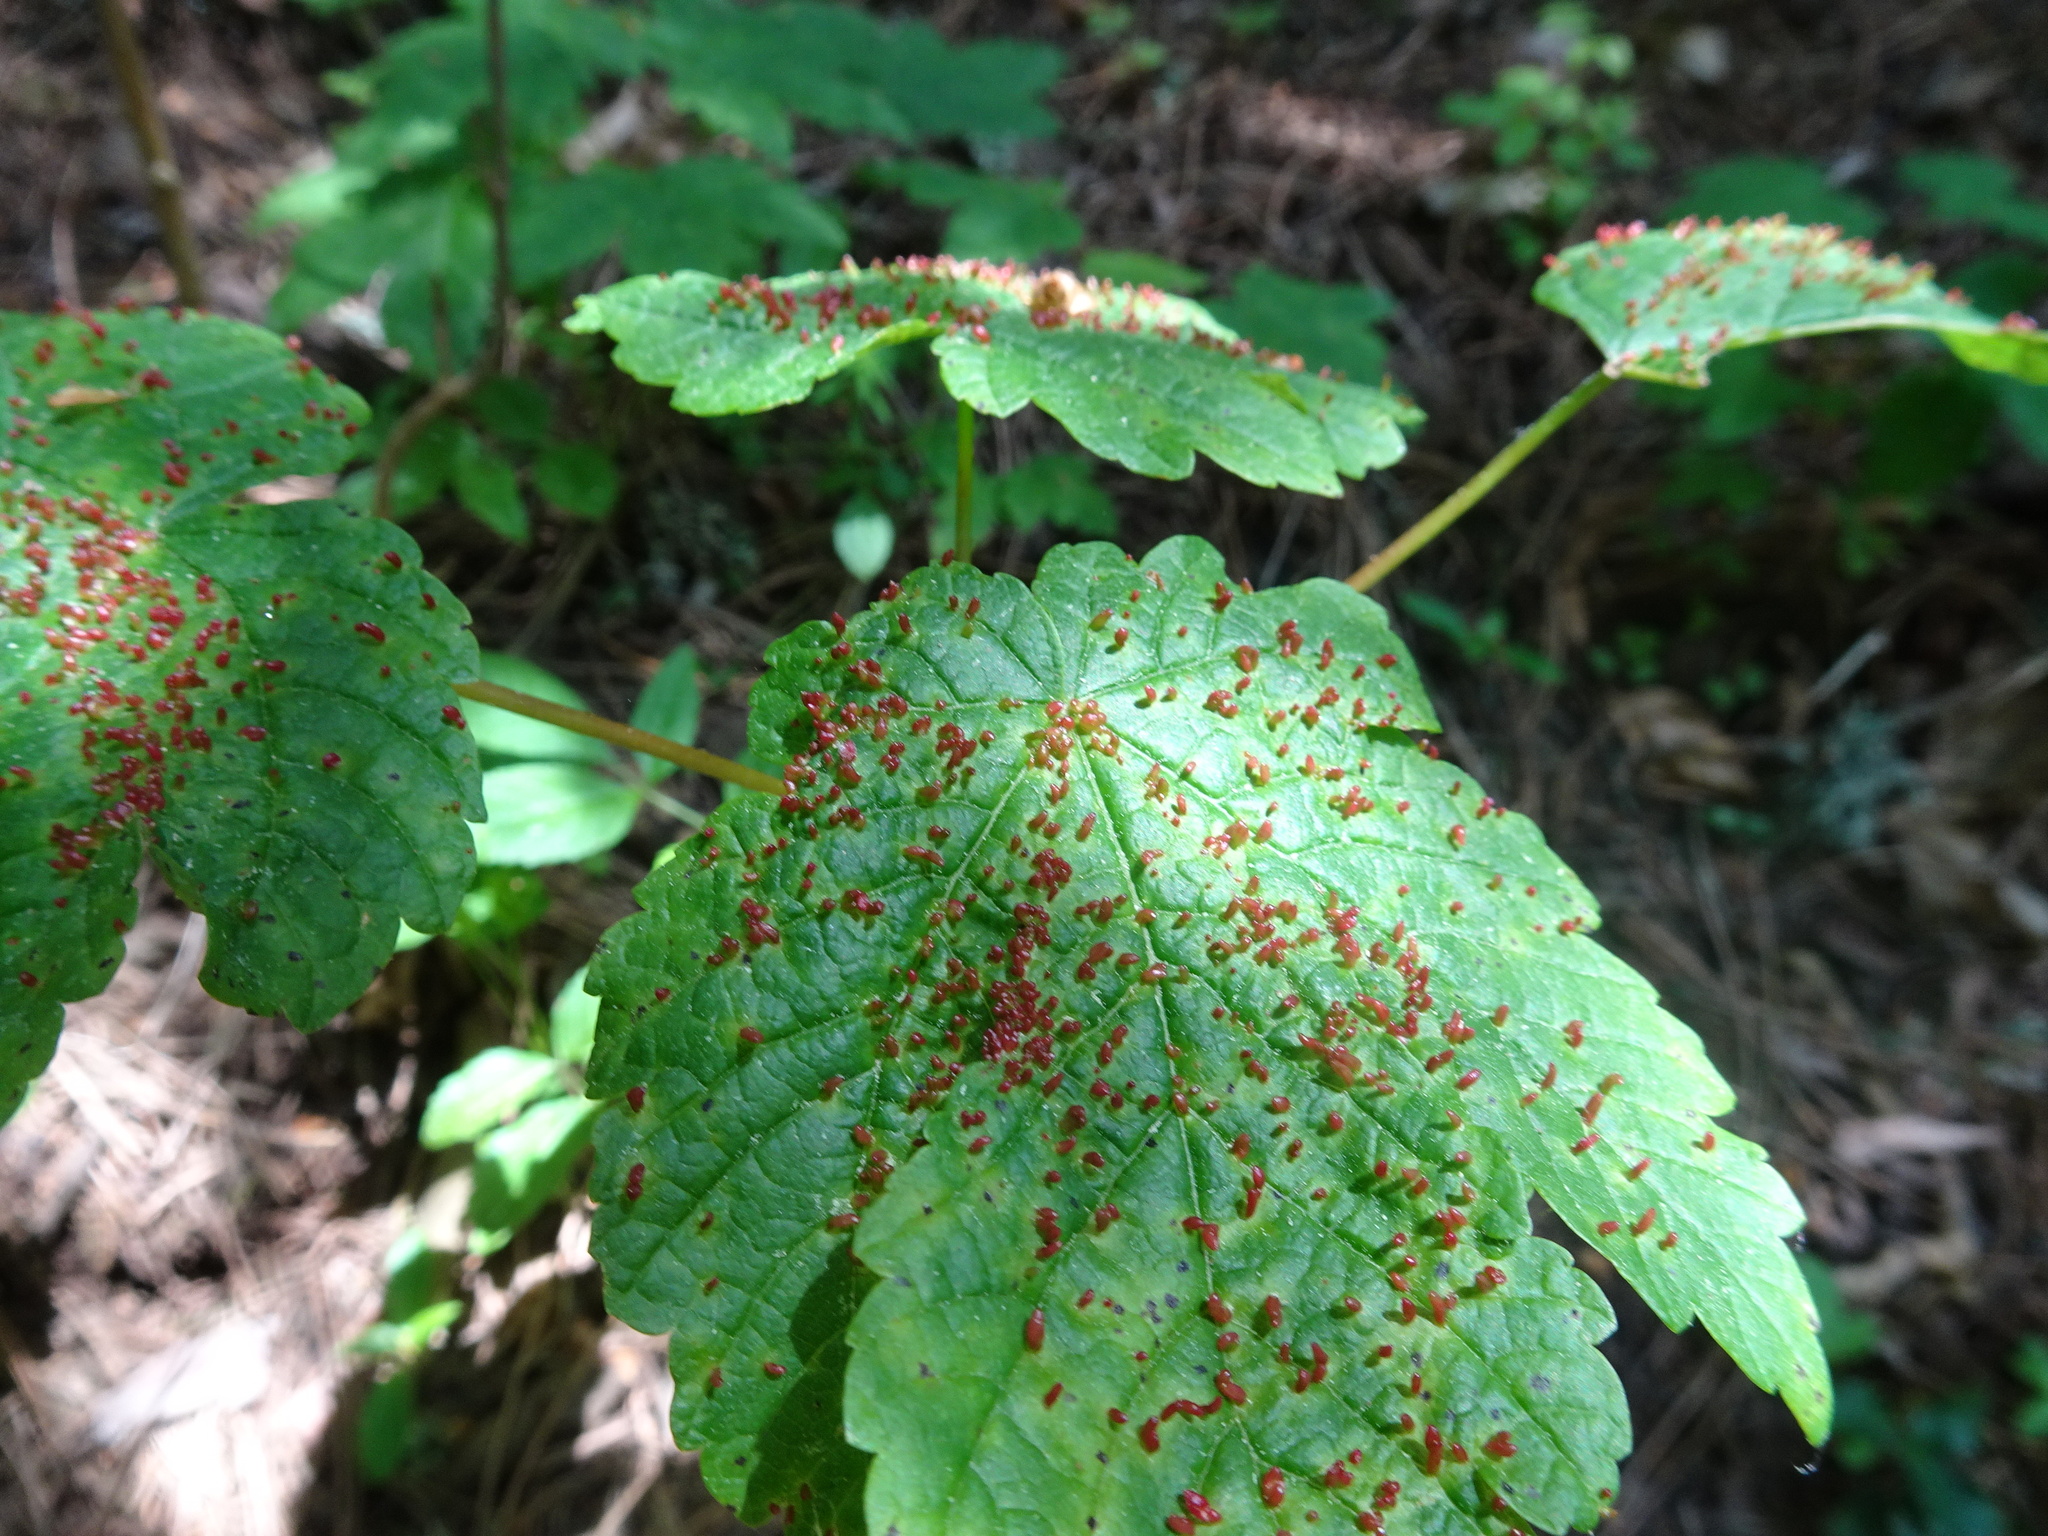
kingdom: Animalia
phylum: Arthropoda
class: Arachnida
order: Trombidiformes
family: Eriophyidae
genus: Aceria
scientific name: Aceria cephaloneus
